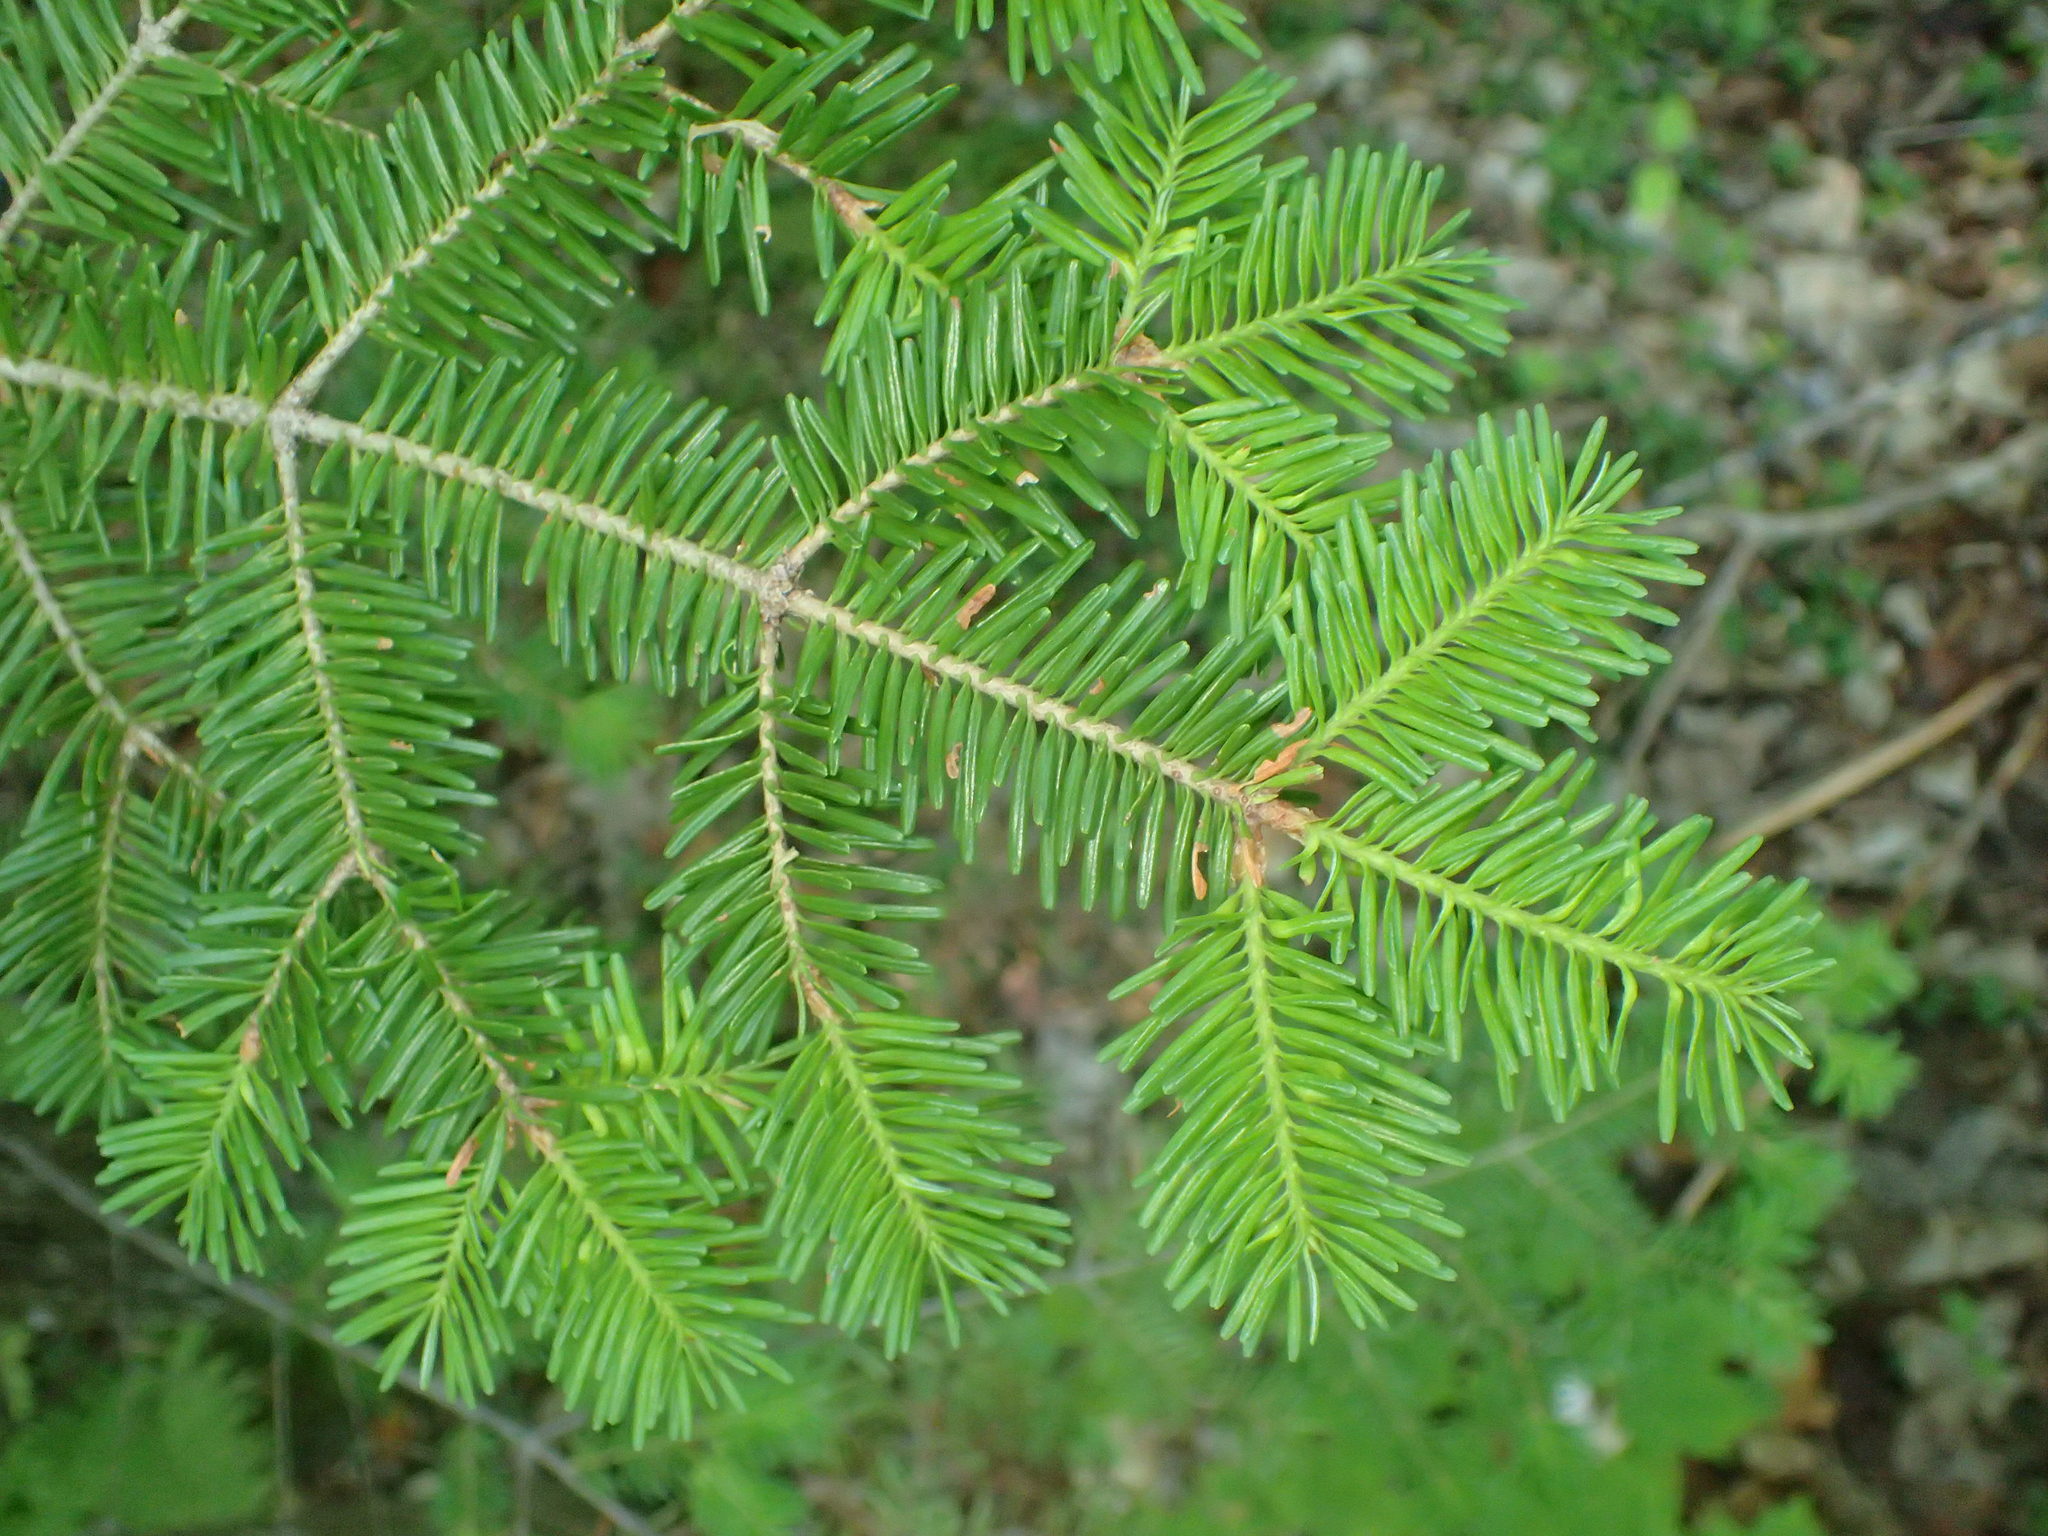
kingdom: Plantae
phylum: Tracheophyta
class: Pinopsida
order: Pinales
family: Pinaceae
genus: Abies
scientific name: Abies balsamea
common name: Balsam fir
